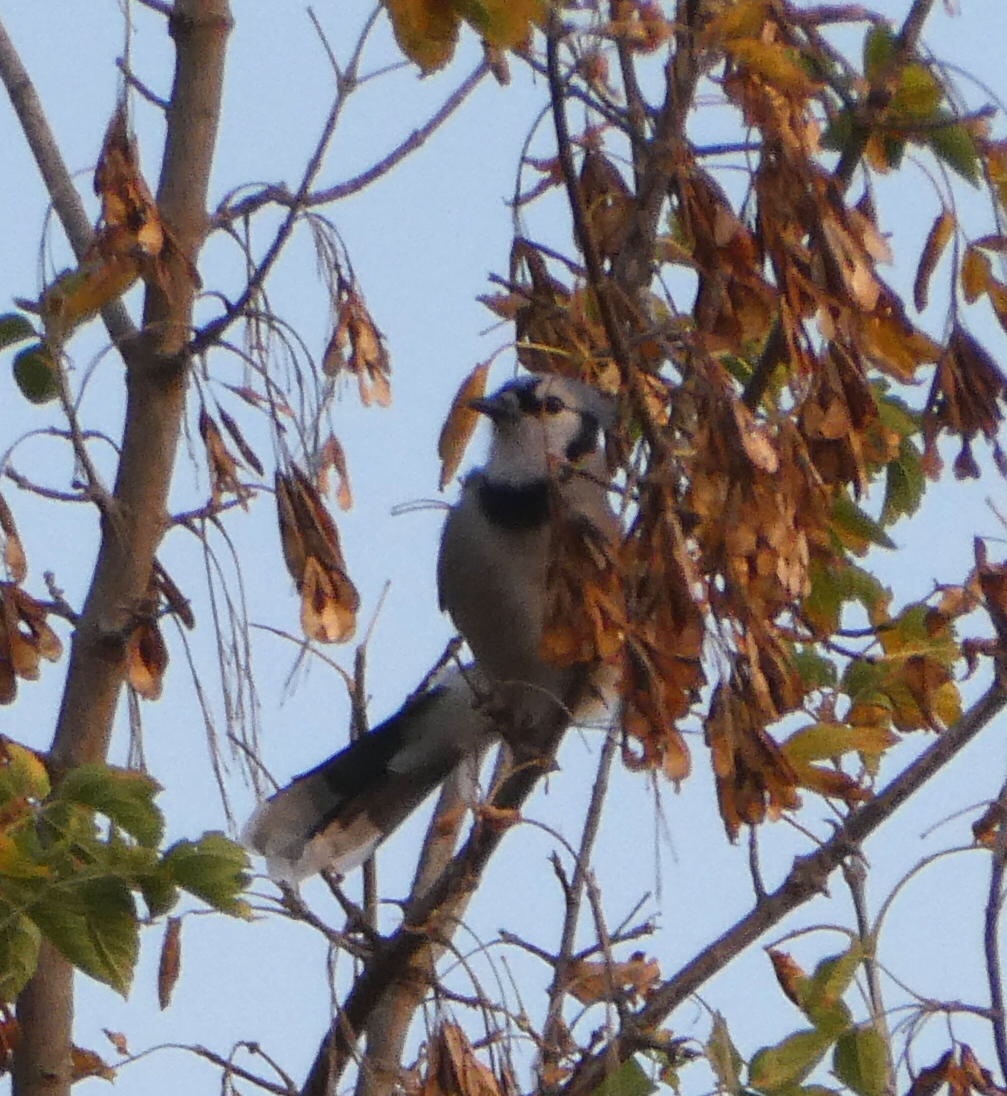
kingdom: Animalia
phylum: Chordata
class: Aves
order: Passeriformes
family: Corvidae
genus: Cyanocitta
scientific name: Cyanocitta cristata
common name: Blue jay
